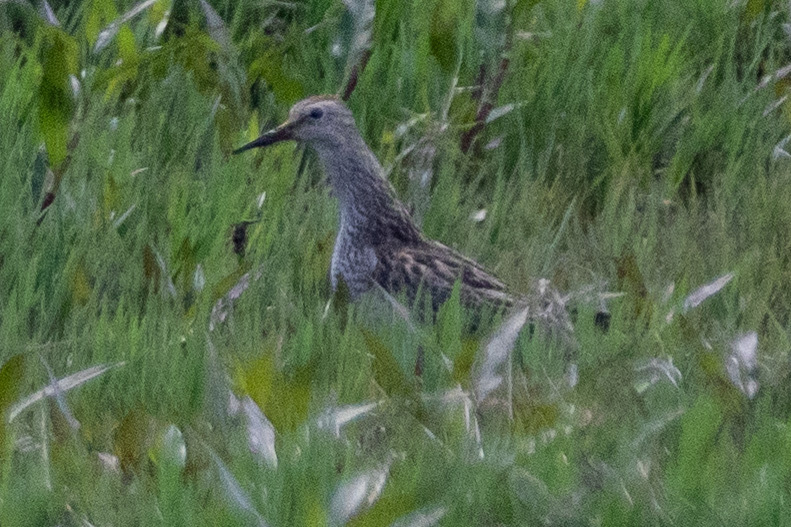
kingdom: Animalia
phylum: Chordata
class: Aves
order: Charadriiformes
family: Scolopacidae
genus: Calidris
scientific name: Calidris melanotos
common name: Pectoral sandpiper
